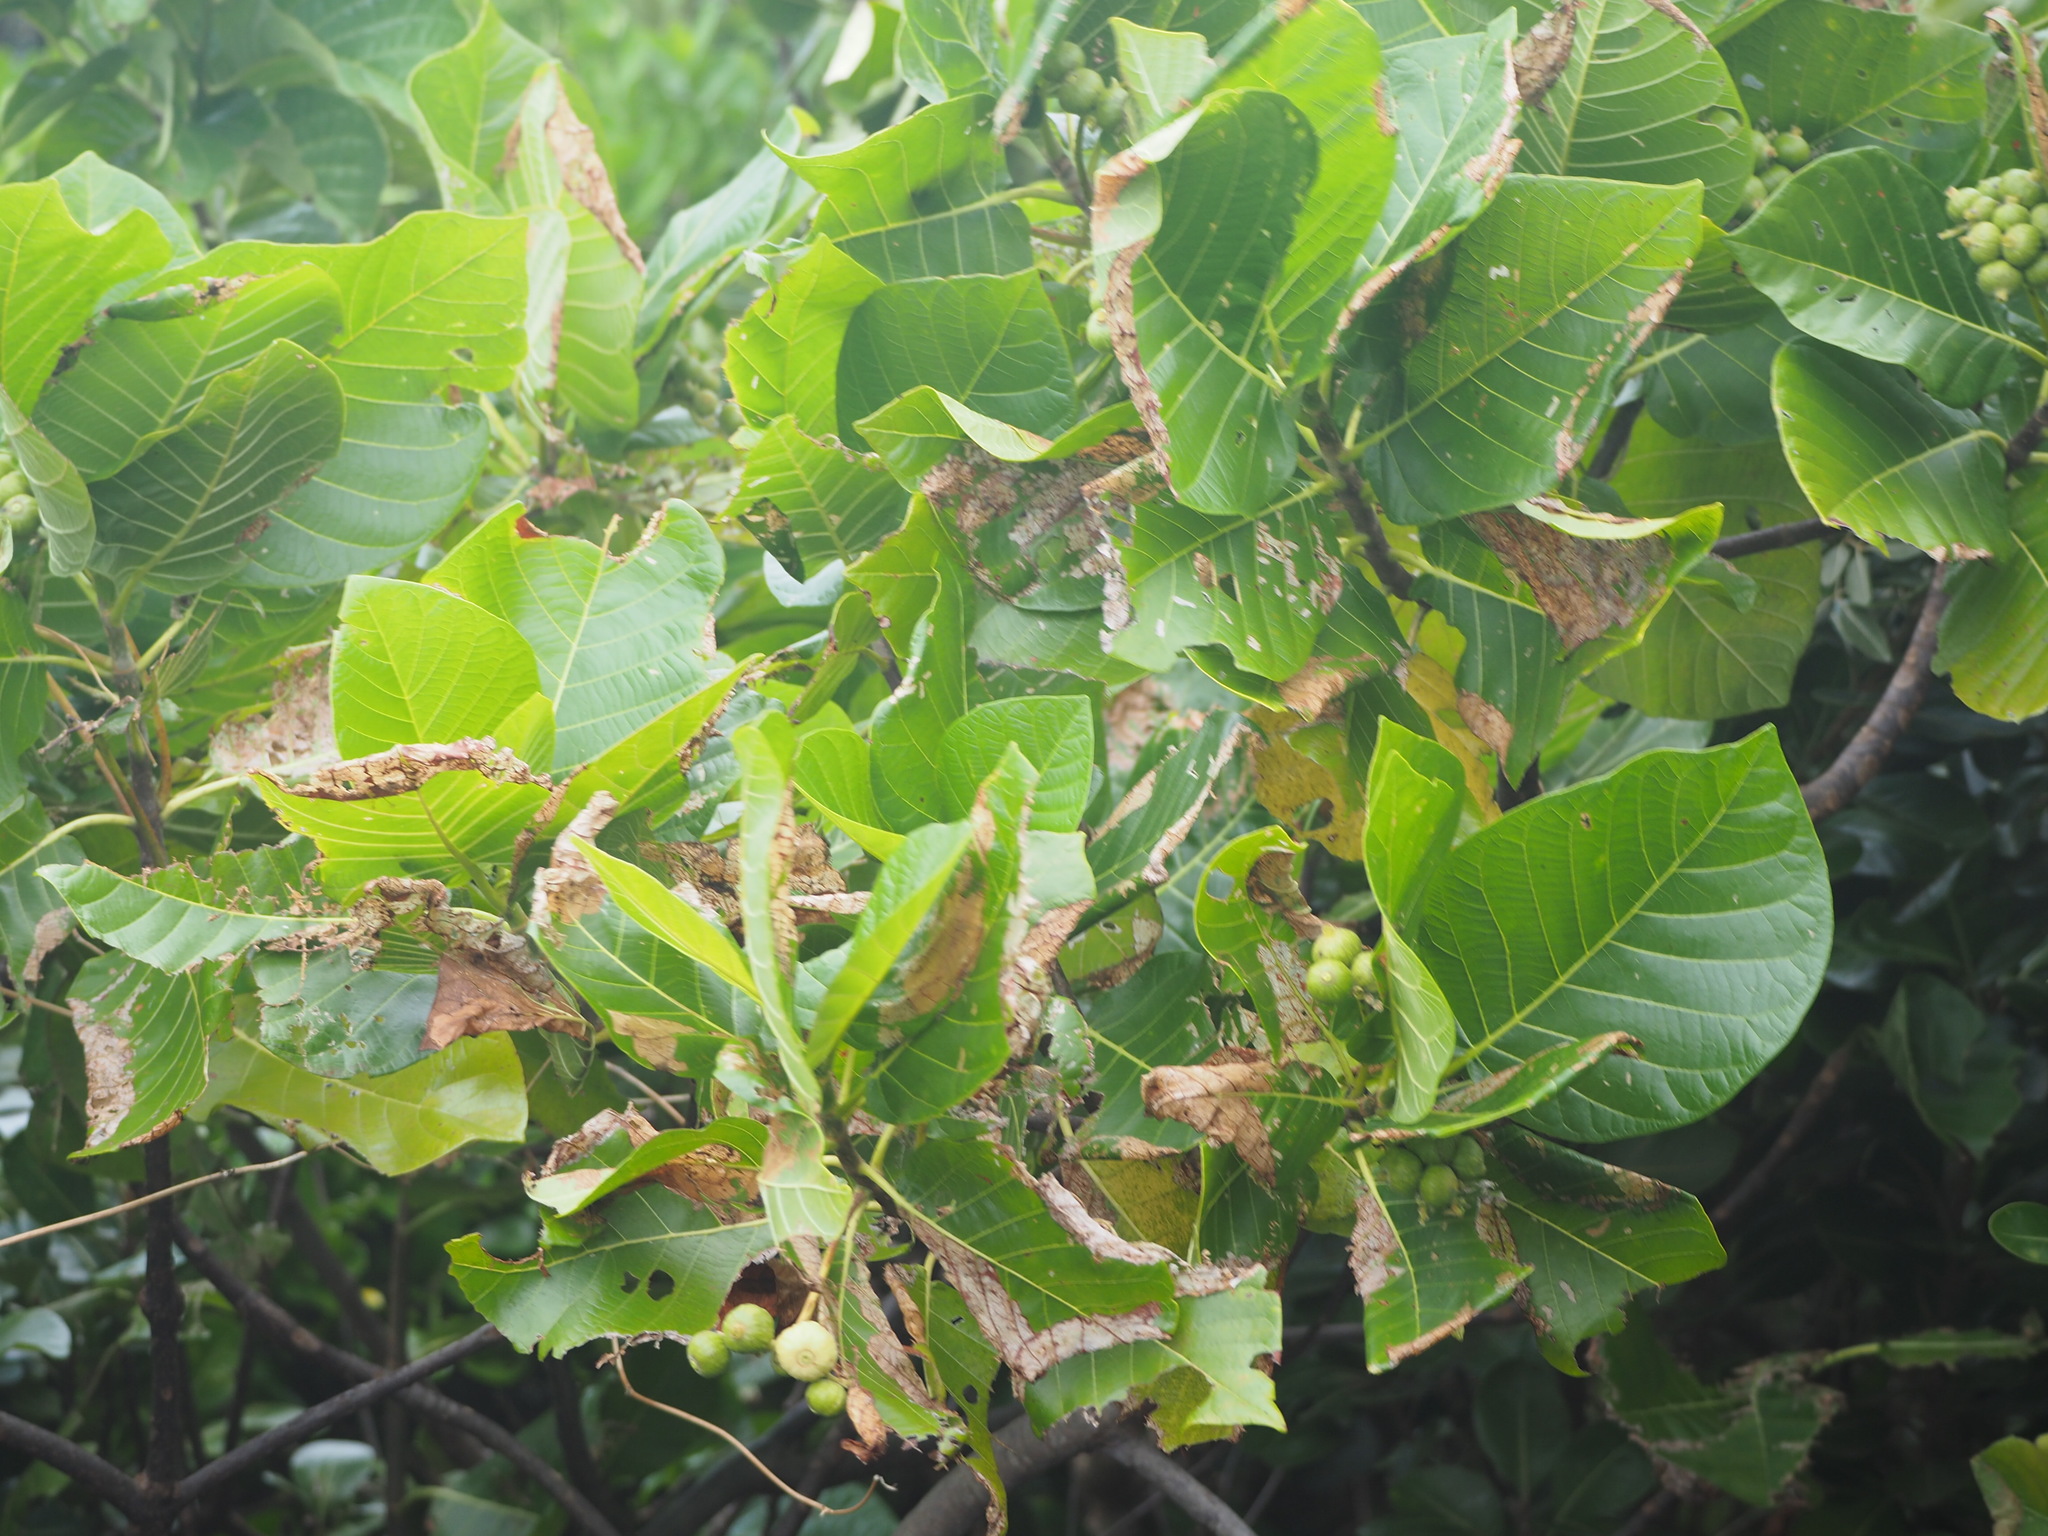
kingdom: Plantae
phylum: Tracheophyta
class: Magnoliopsida
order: Gentianales
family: Rubiaceae
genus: Guettarda
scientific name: Guettarda speciosa
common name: Sea randa
